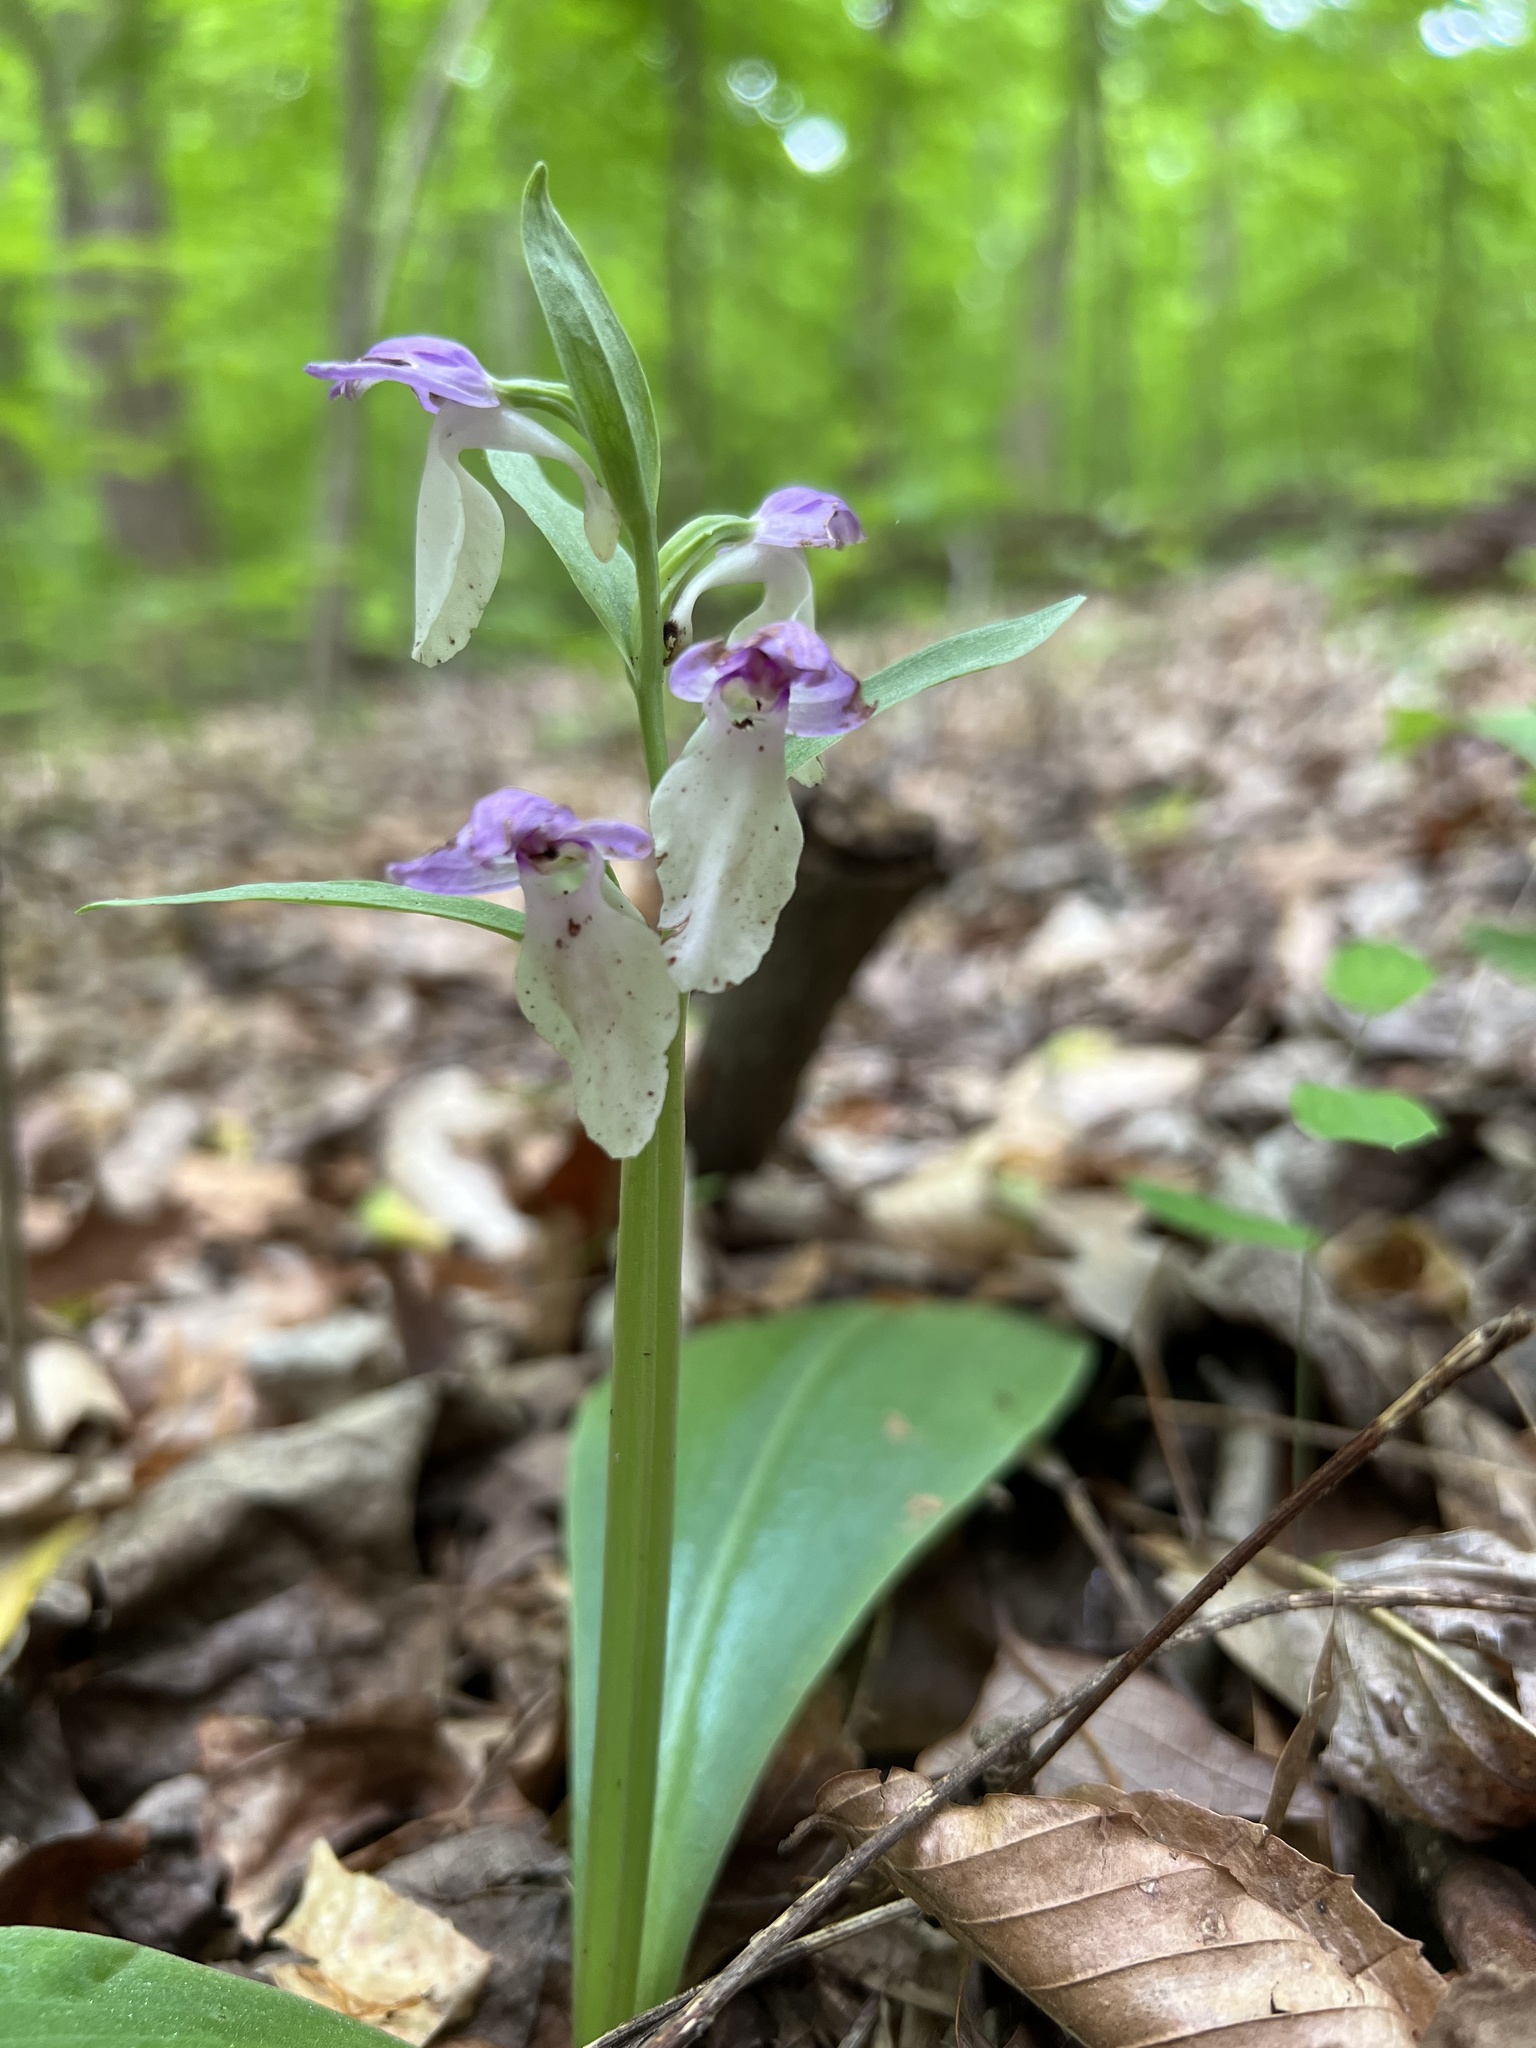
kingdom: Plantae
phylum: Tracheophyta
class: Liliopsida
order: Asparagales
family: Orchidaceae
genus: Galearis
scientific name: Galearis spectabilis
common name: Purple-hooded orchis
